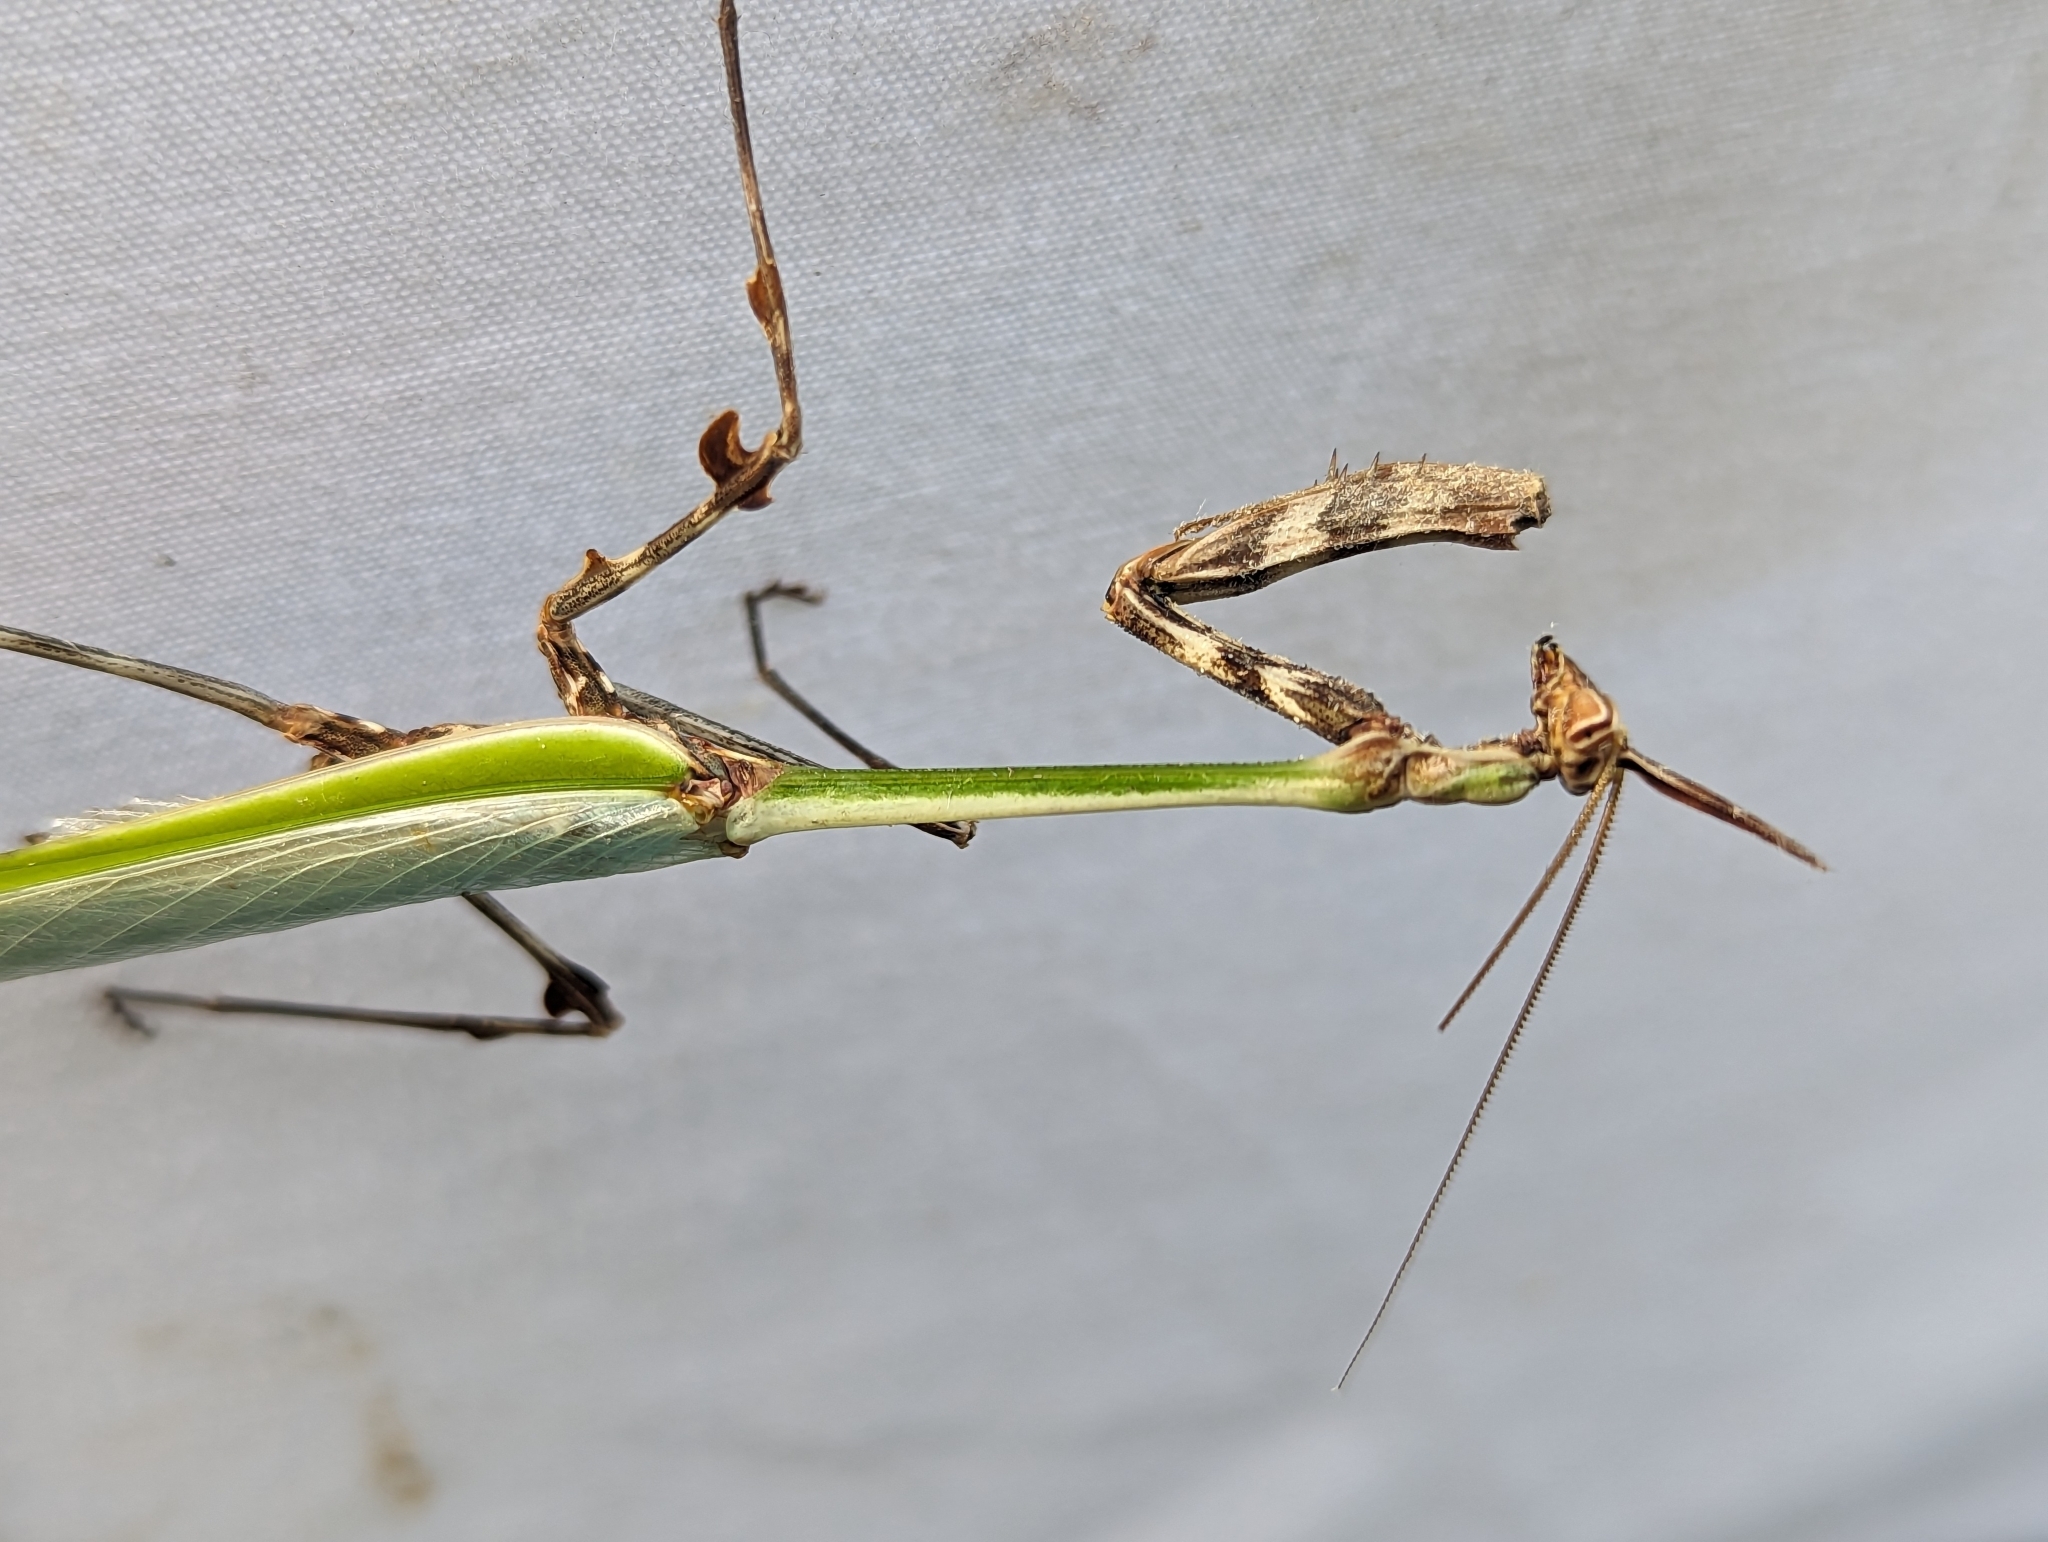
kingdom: Animalia
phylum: Arthropoda
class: Insecta
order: Mantodea
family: Mantidae
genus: Zoolea
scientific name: Zoolea lobipes
